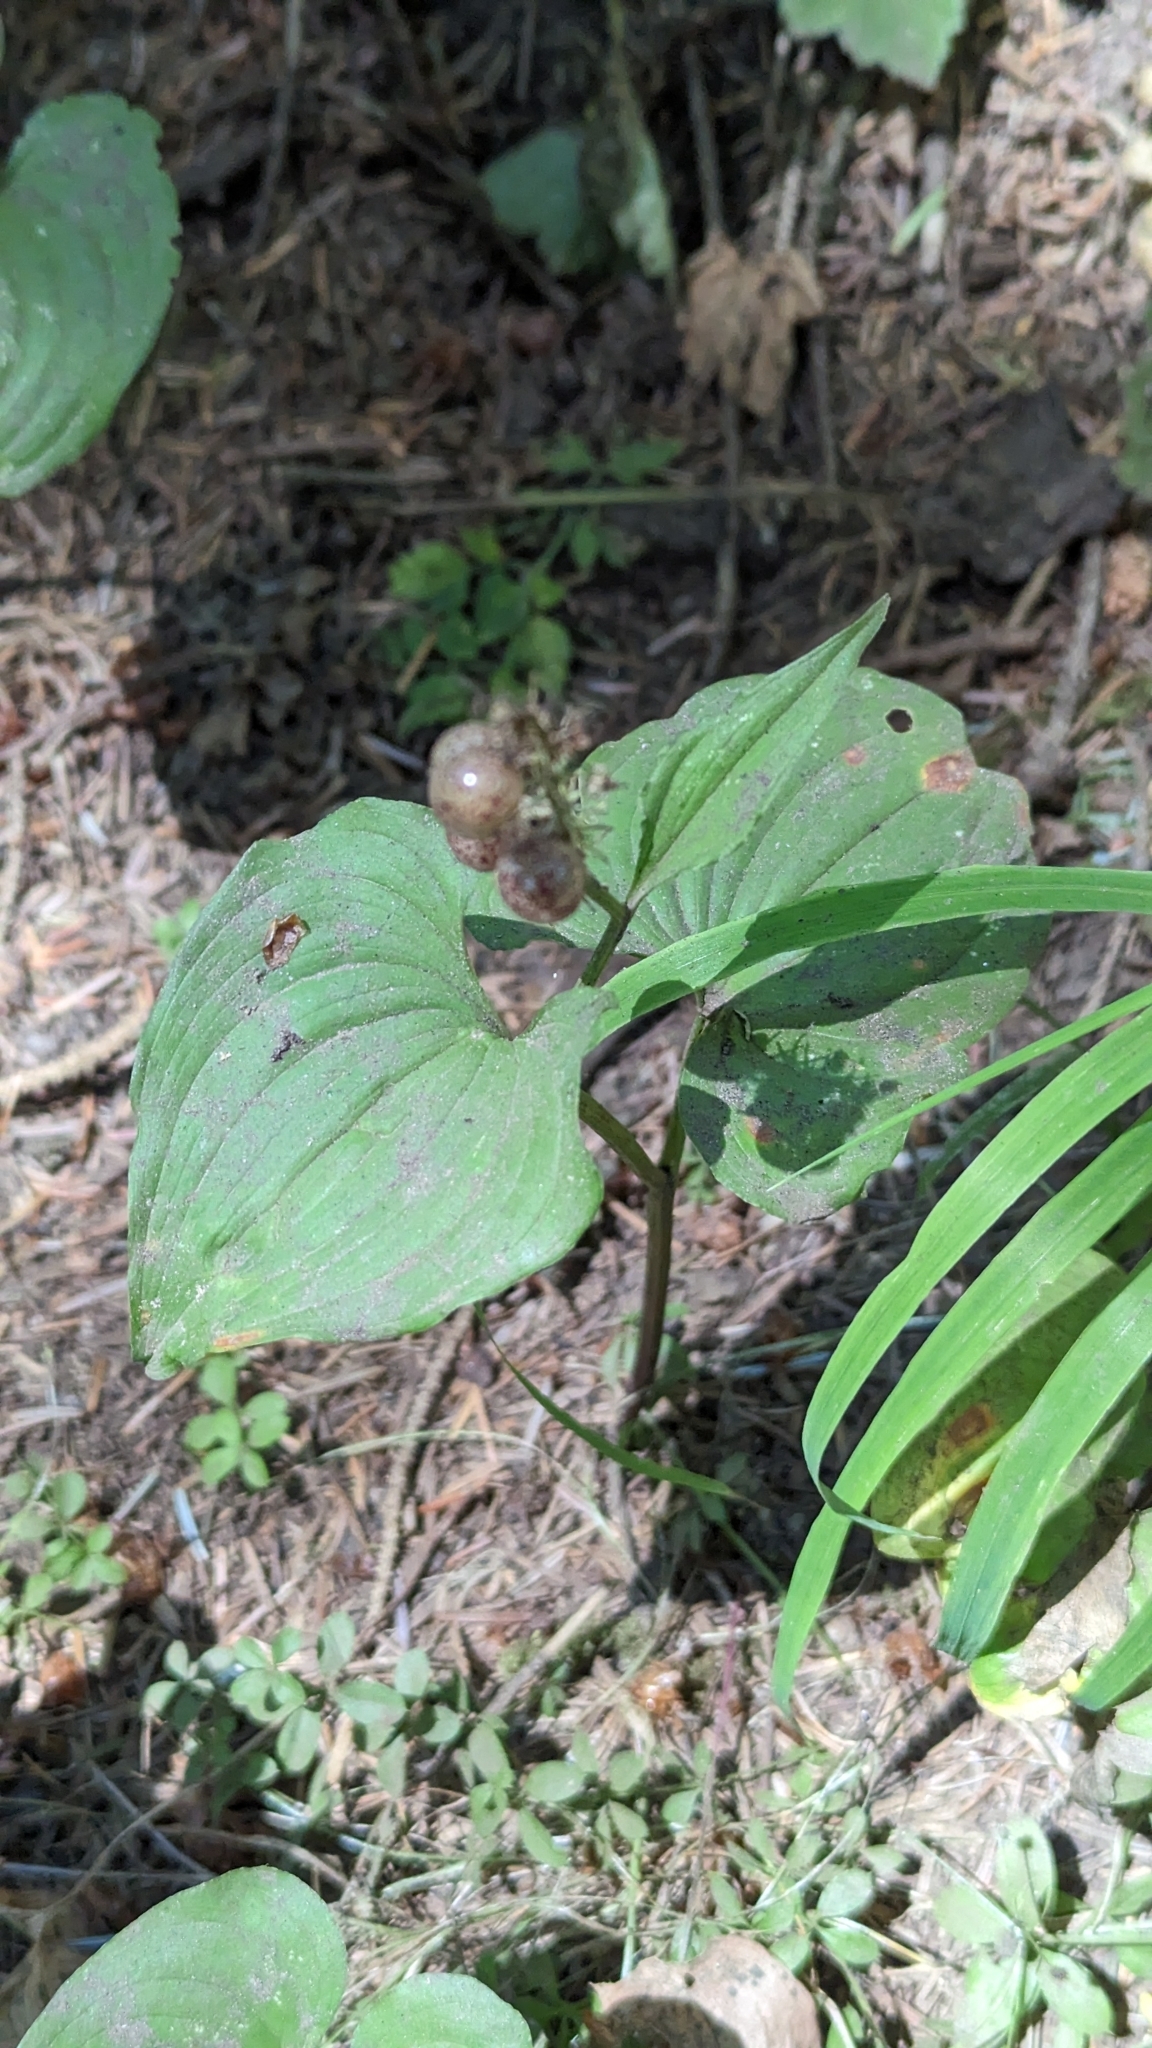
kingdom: Plantae
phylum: Tracheophyta
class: Liliopsida
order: Asparagales
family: Asparagaceae
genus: Maianthemum
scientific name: Maianthemum dilatatum
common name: False lily-of-the-valley
